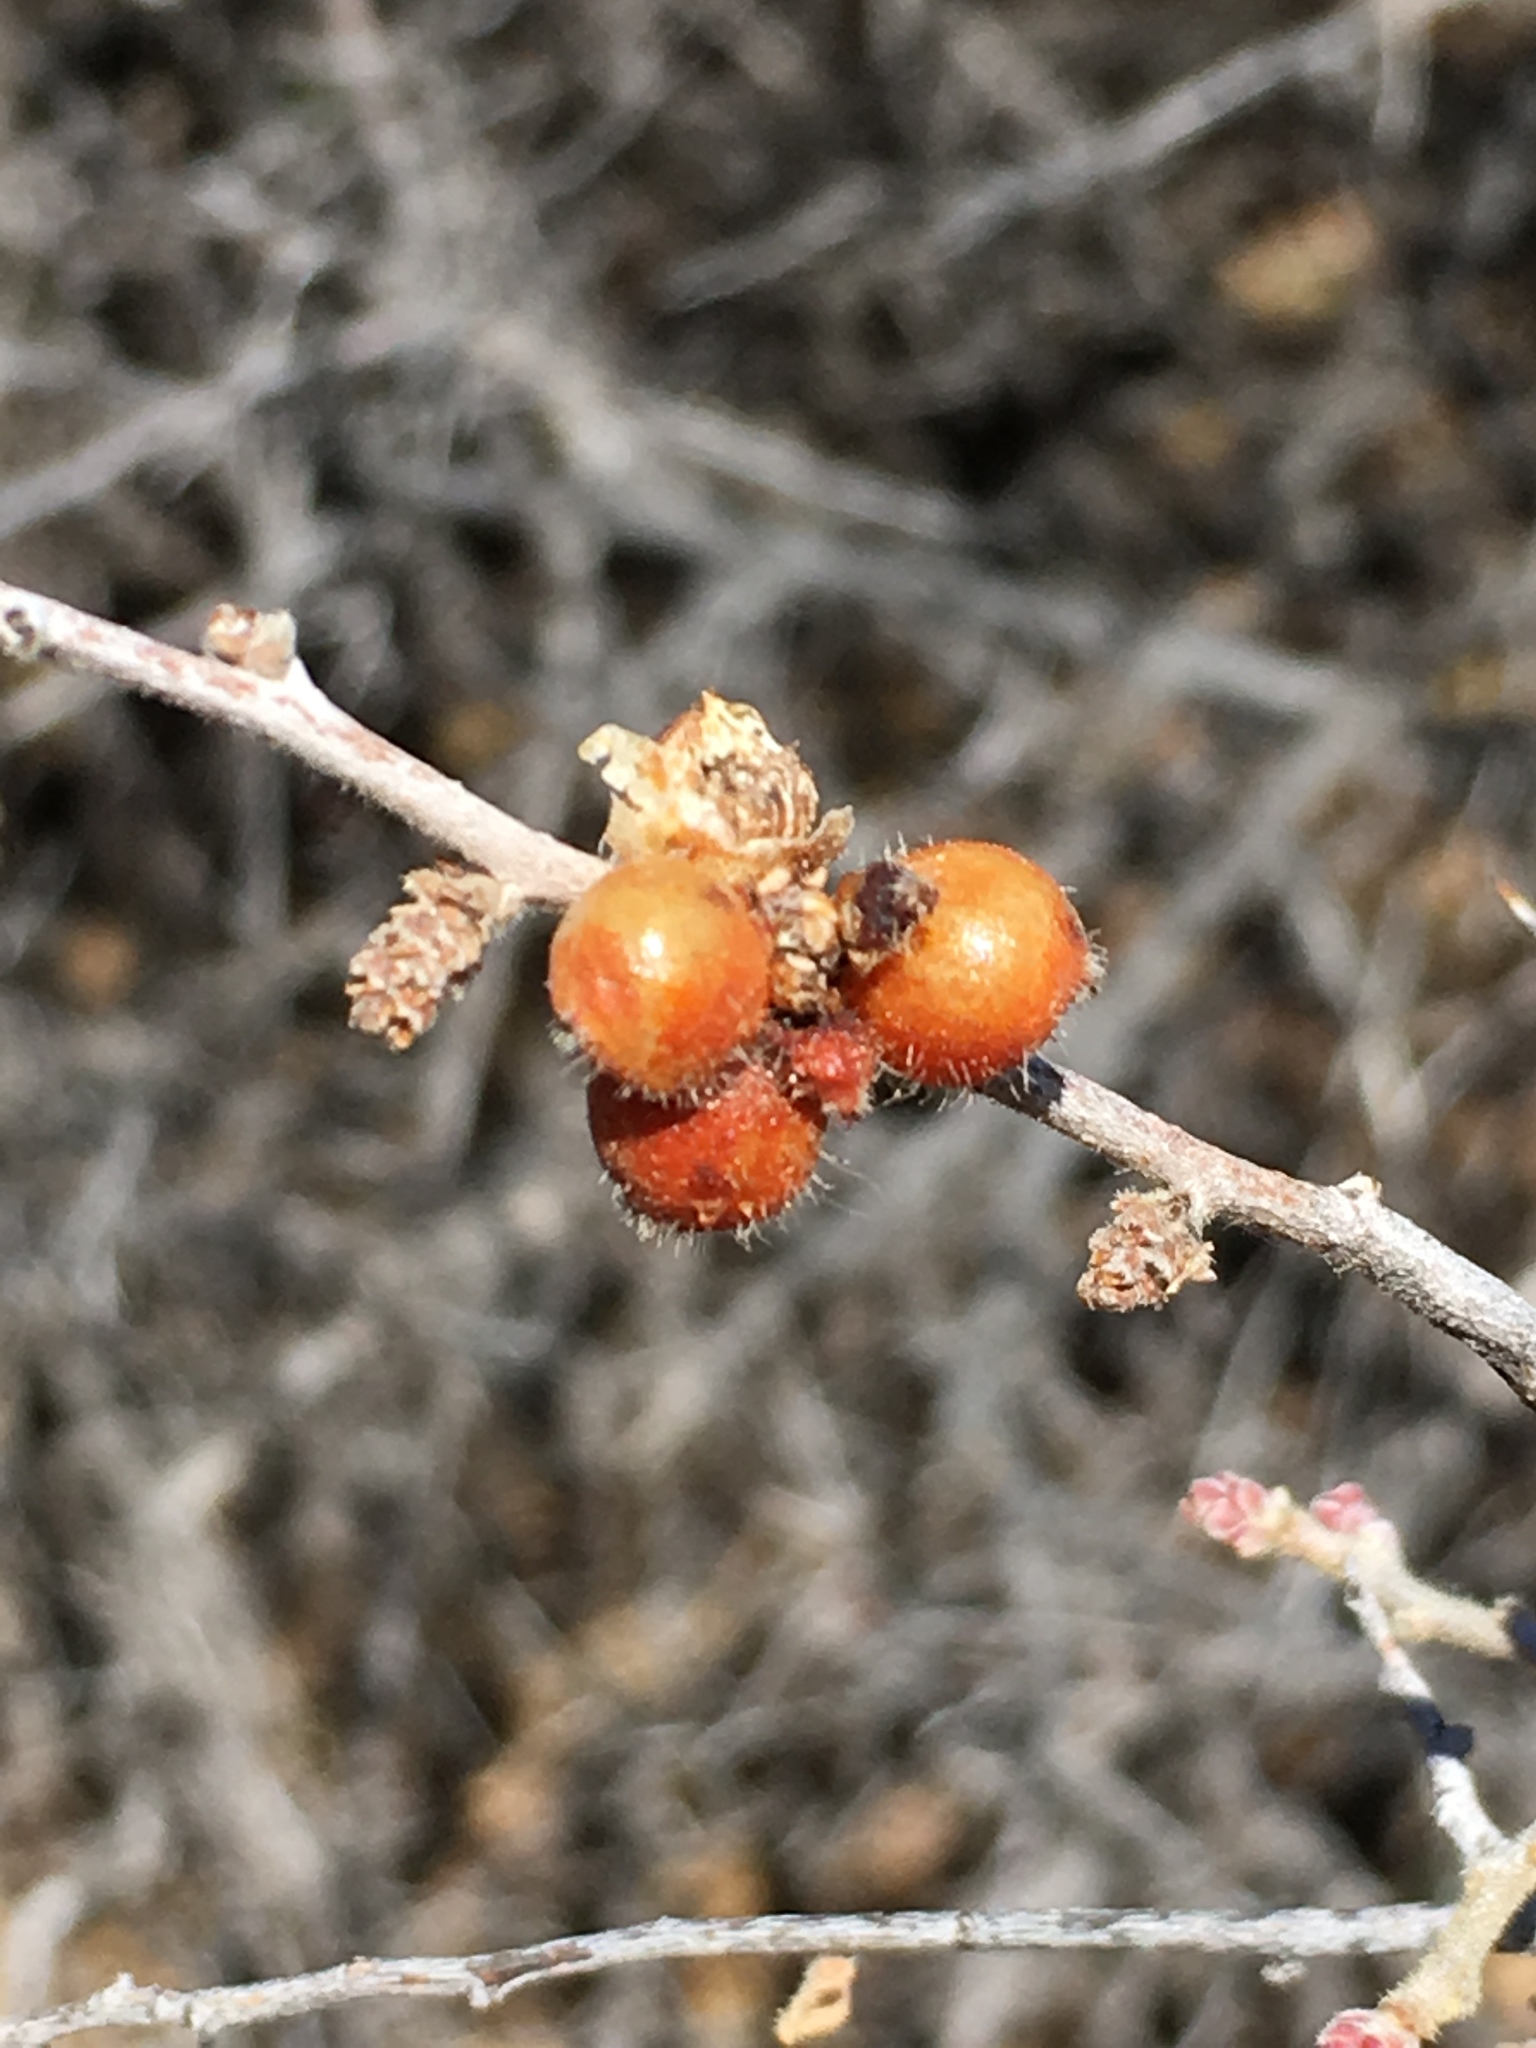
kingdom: Plantae
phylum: Tracheophyta
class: Magnoliopsida
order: Sapindales
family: Anacardiaceae
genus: Rhus
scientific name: Rhus microphylla
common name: Desert sumac
